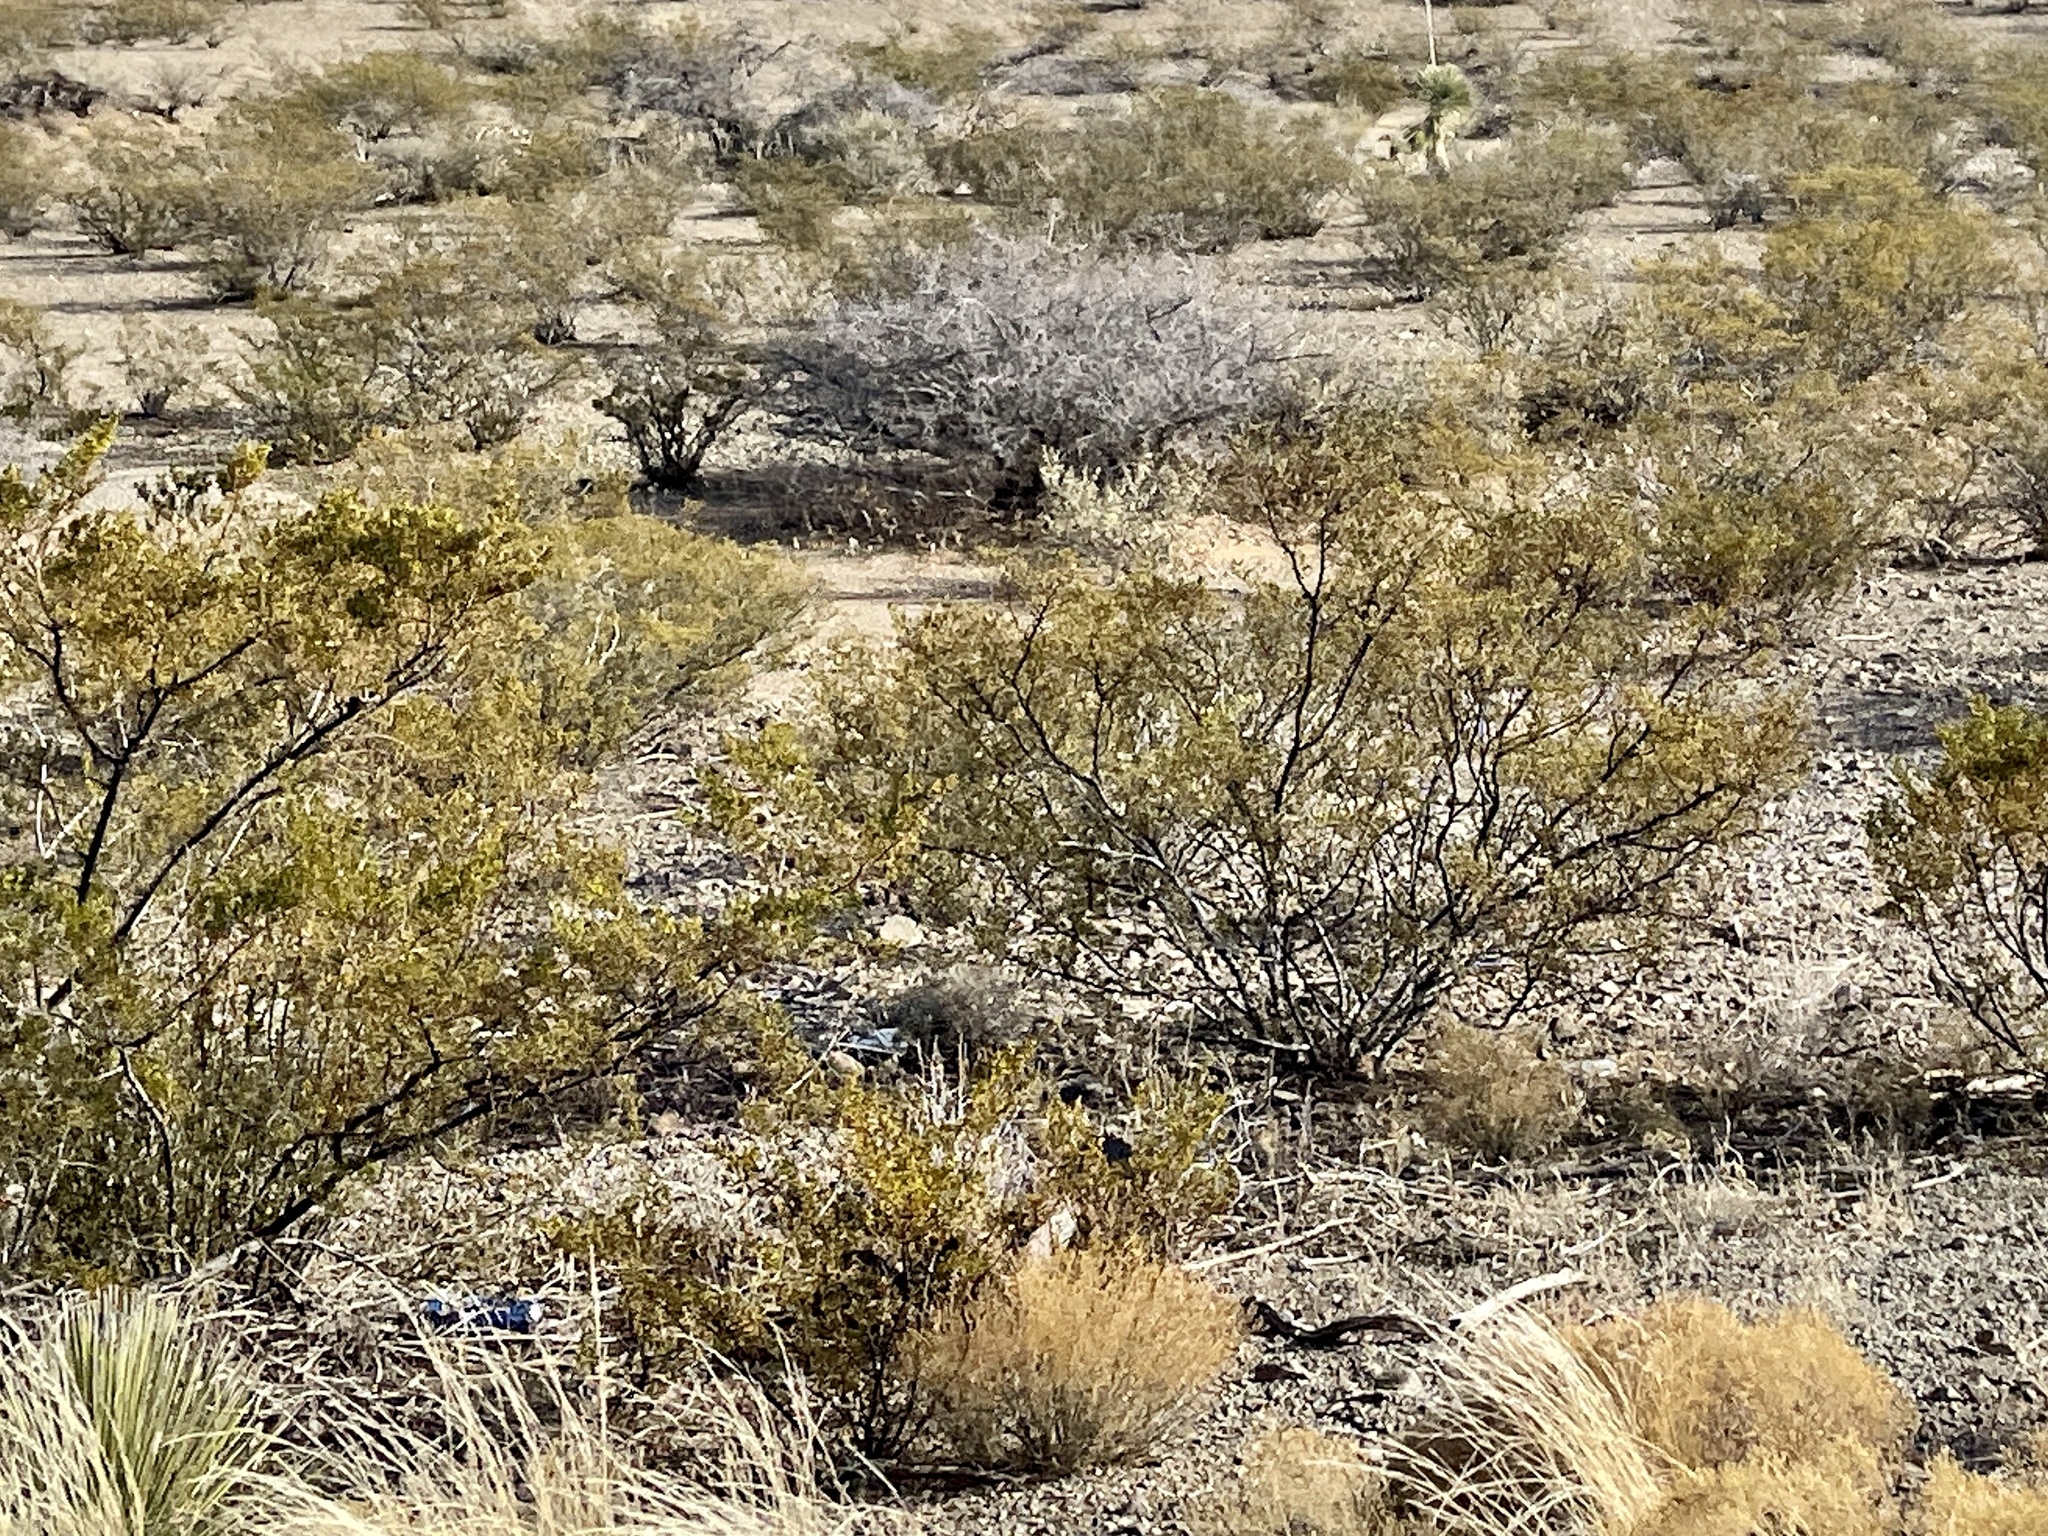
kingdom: Plantae
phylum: Tracheophyta
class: Magnoliopsida
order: Zygophyllales
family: Zygophyllaceae
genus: Larrea
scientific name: Larrea tridentata
